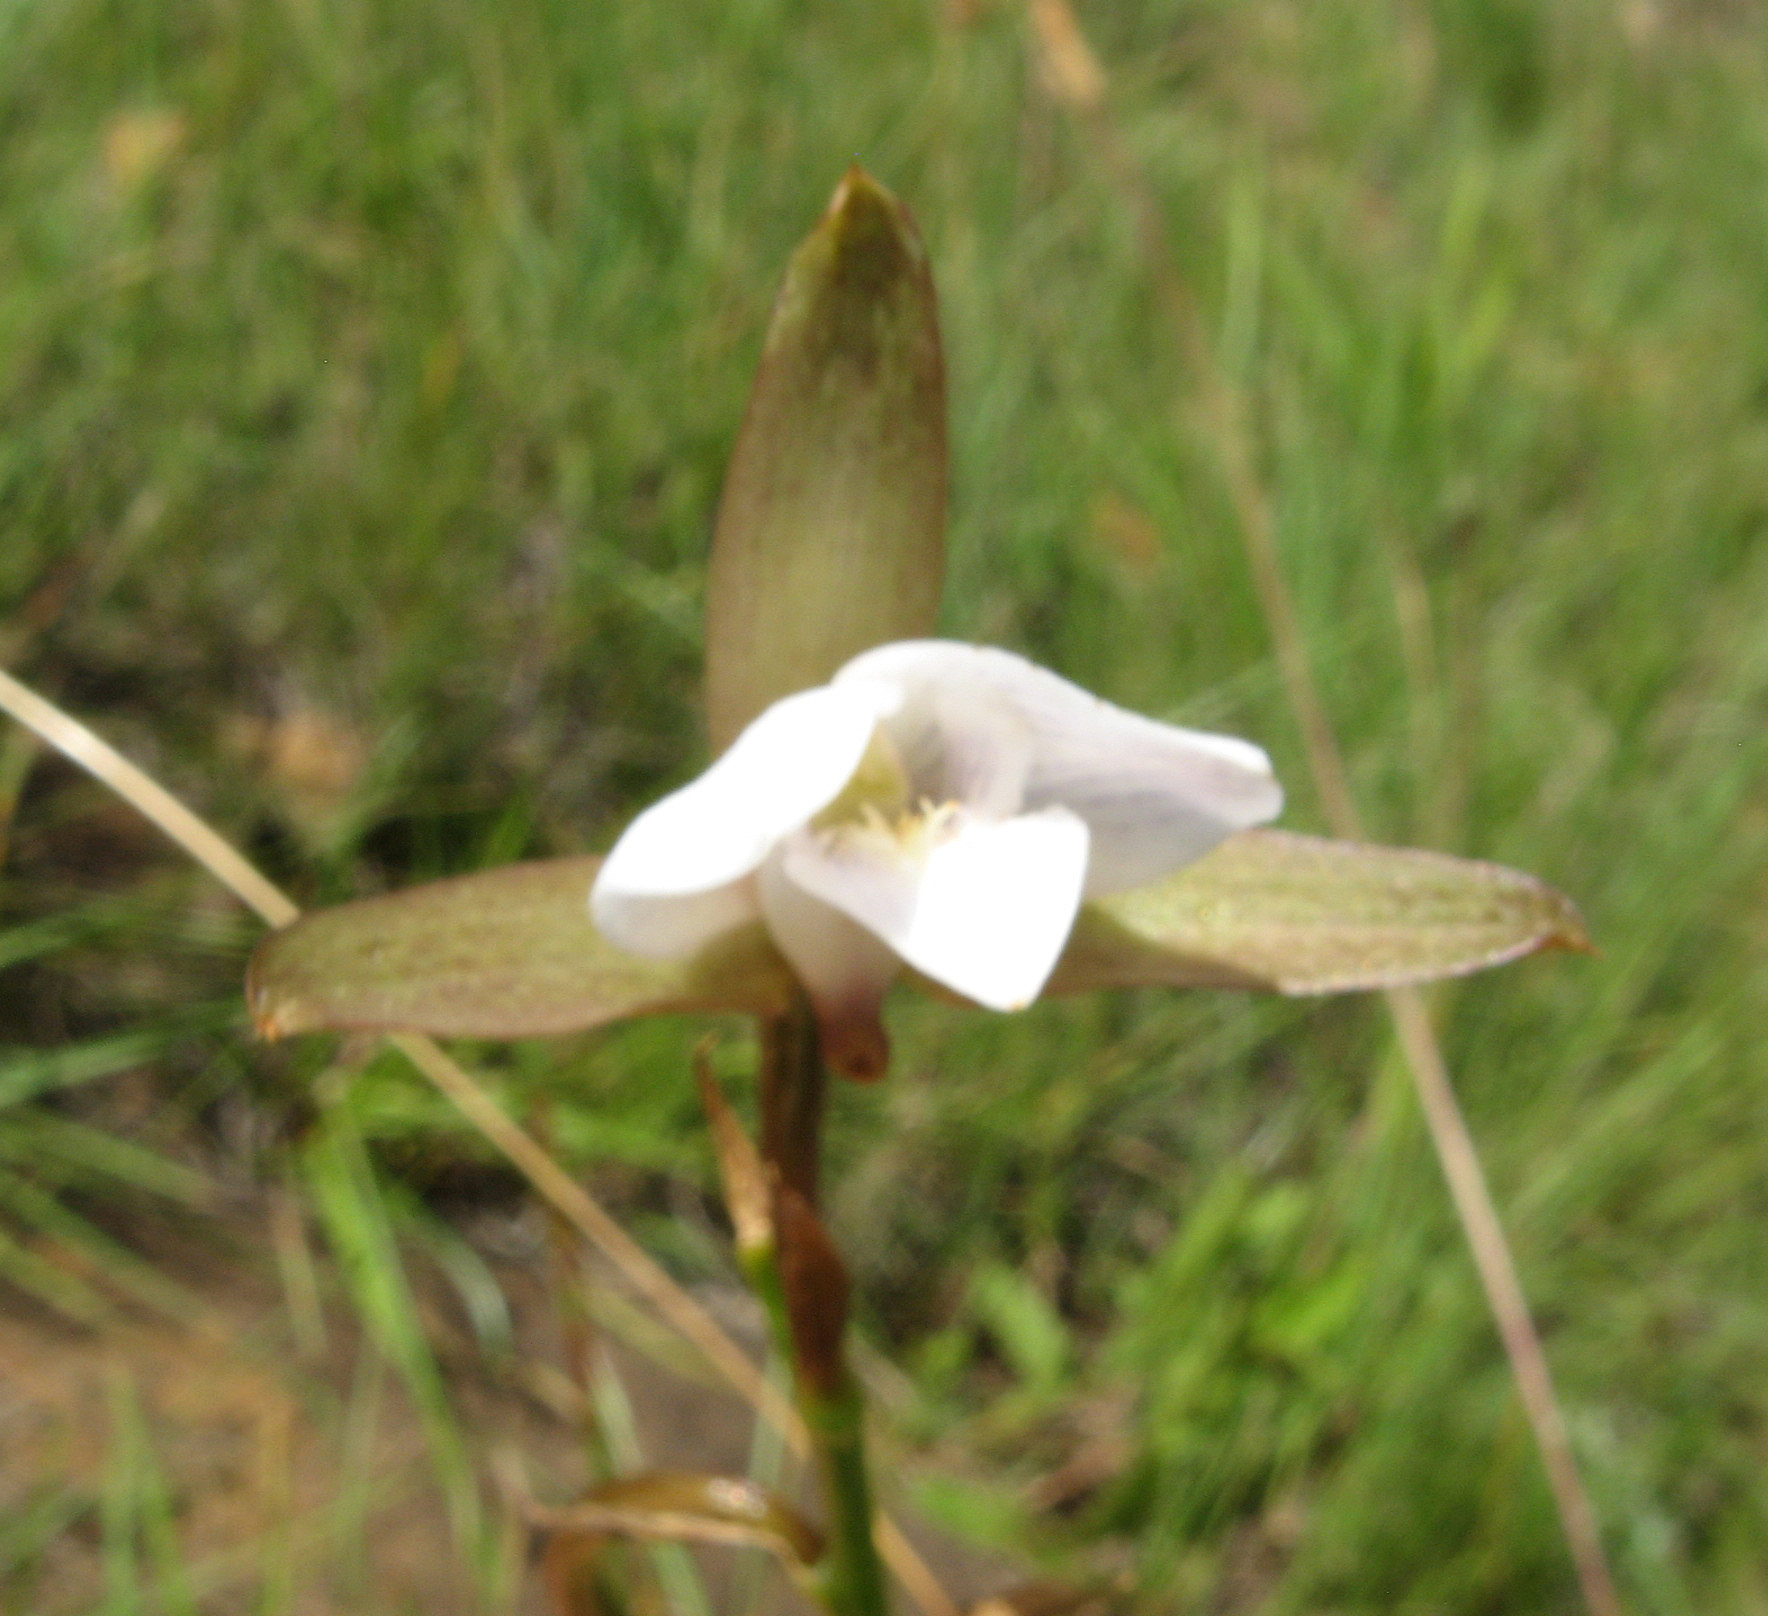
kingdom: Plantae
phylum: Tracheophyta
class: Liliopsida
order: Asparagales
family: Orchidaceae
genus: Eulophia
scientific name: Eulophia ovalis
